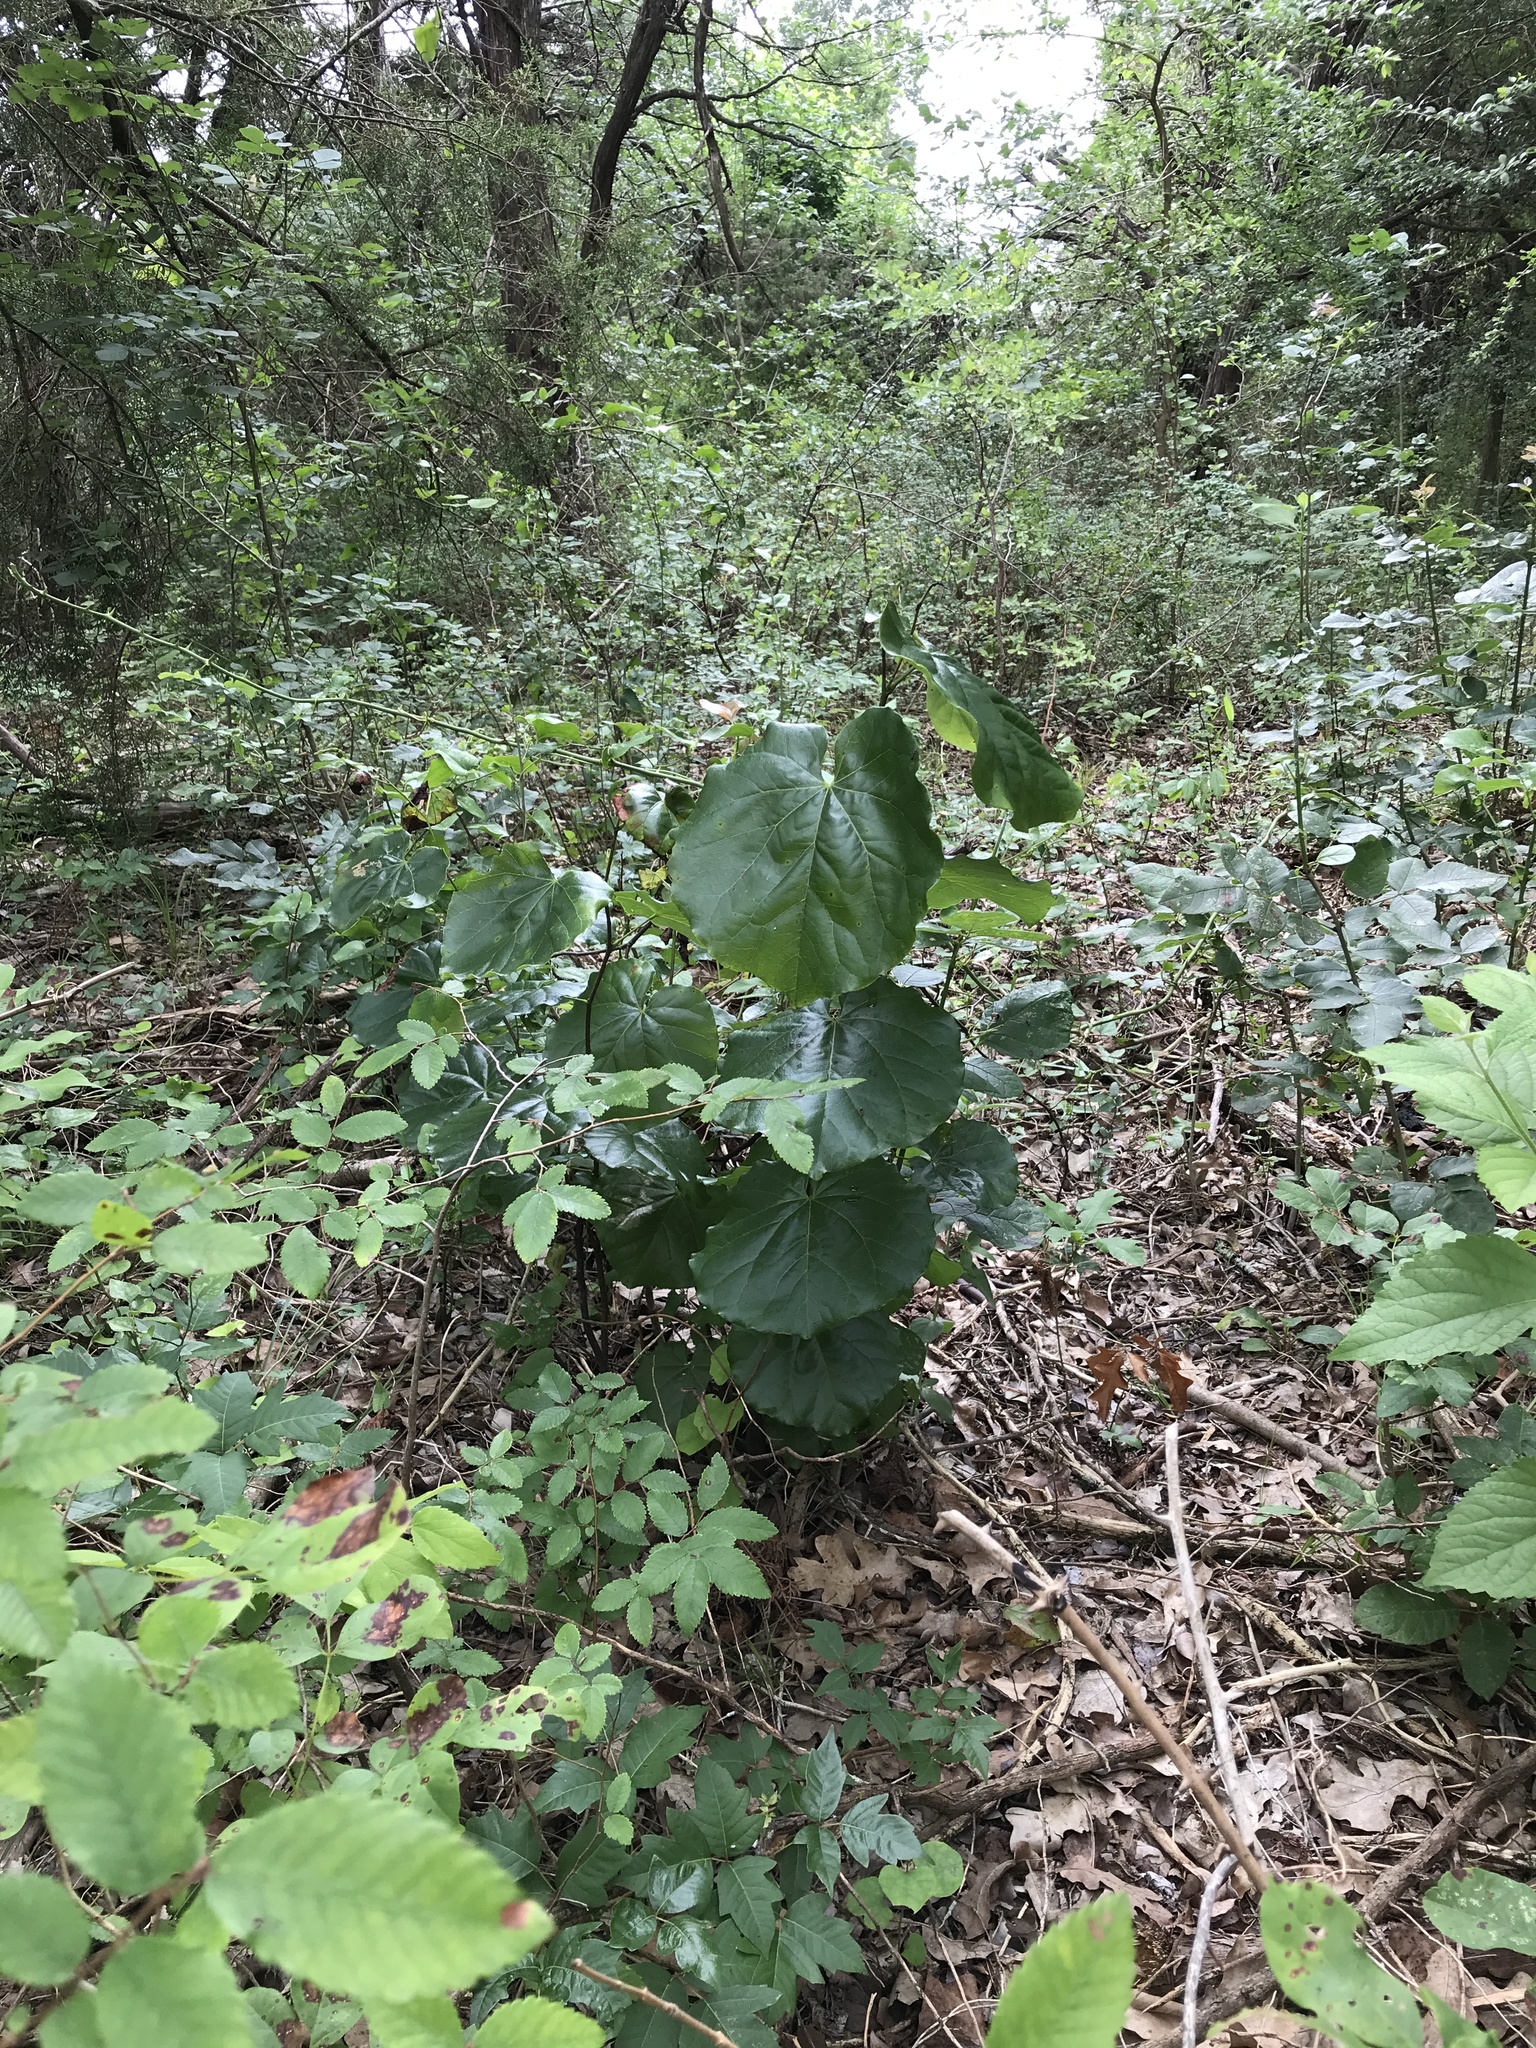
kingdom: Plantae
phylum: Tracheophyta
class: Magnoliopsida
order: Fabales
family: Fabaceae
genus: Cercis
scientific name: Cercis canadensis
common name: Eastern redbud
